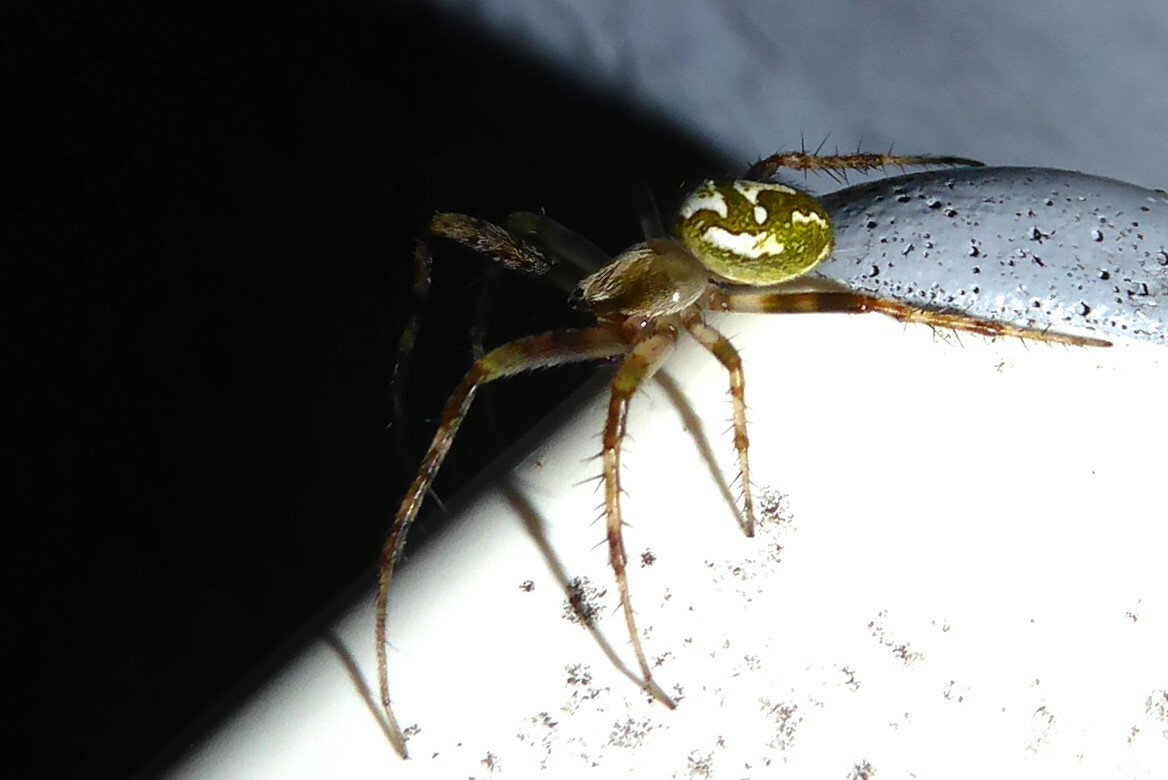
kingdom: Animalia
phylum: Arthropoda
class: Arachnida
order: Araneae
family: Araneidae
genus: Colaranea
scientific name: Colaranea verutum
